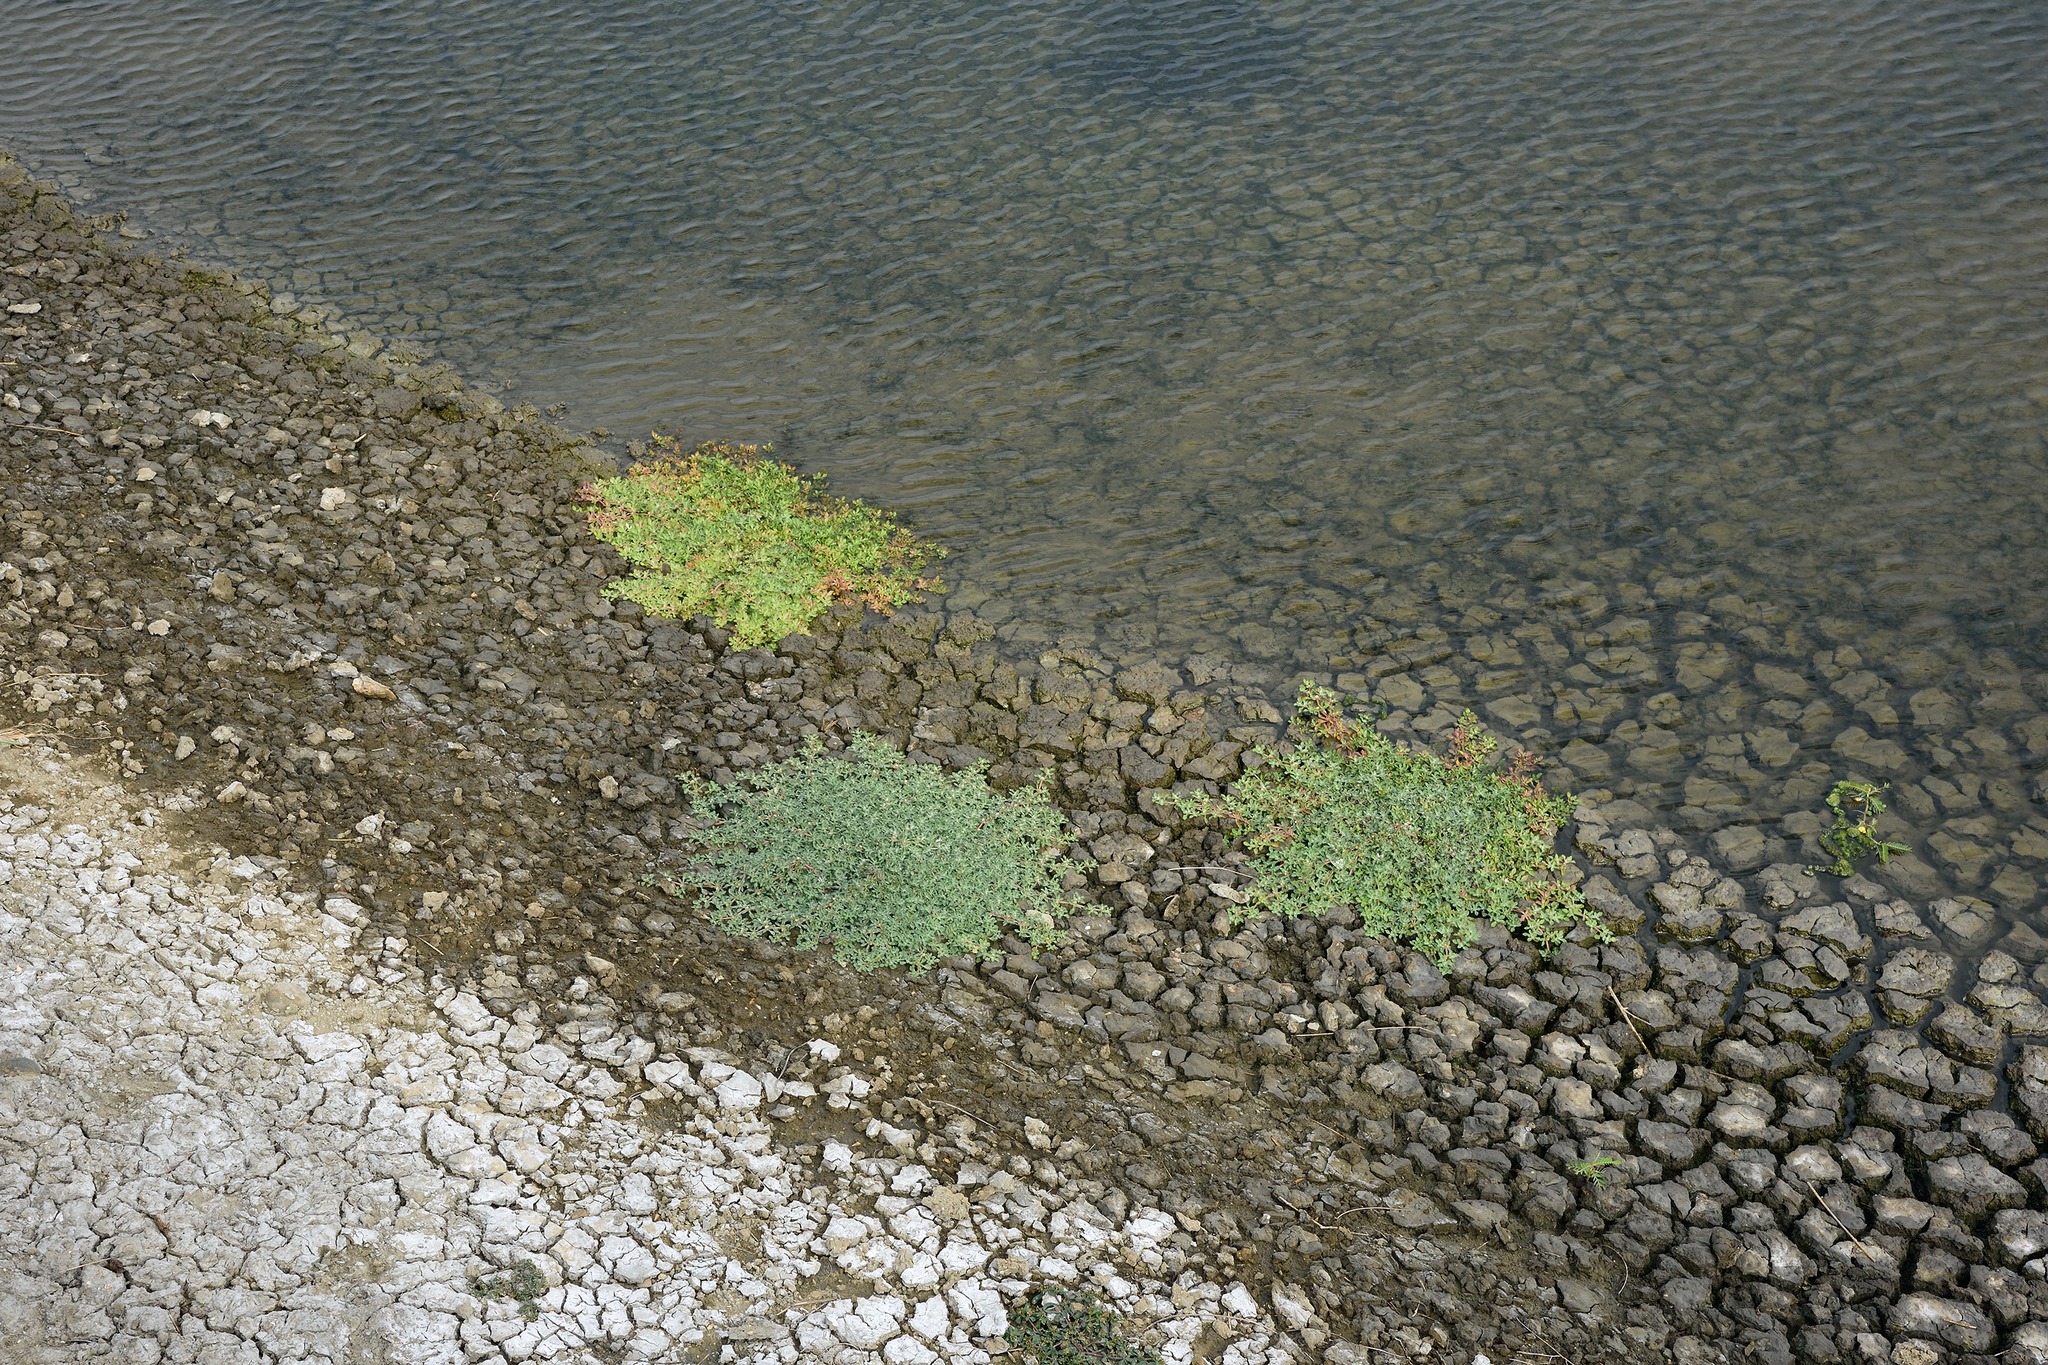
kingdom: Plantae
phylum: Tracheophyta
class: Magnoliopsida
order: Caryophyllales
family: Amaranthaceae
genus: Alternanthera
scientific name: Alternanthera paronychioides
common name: Smooth joyweed
